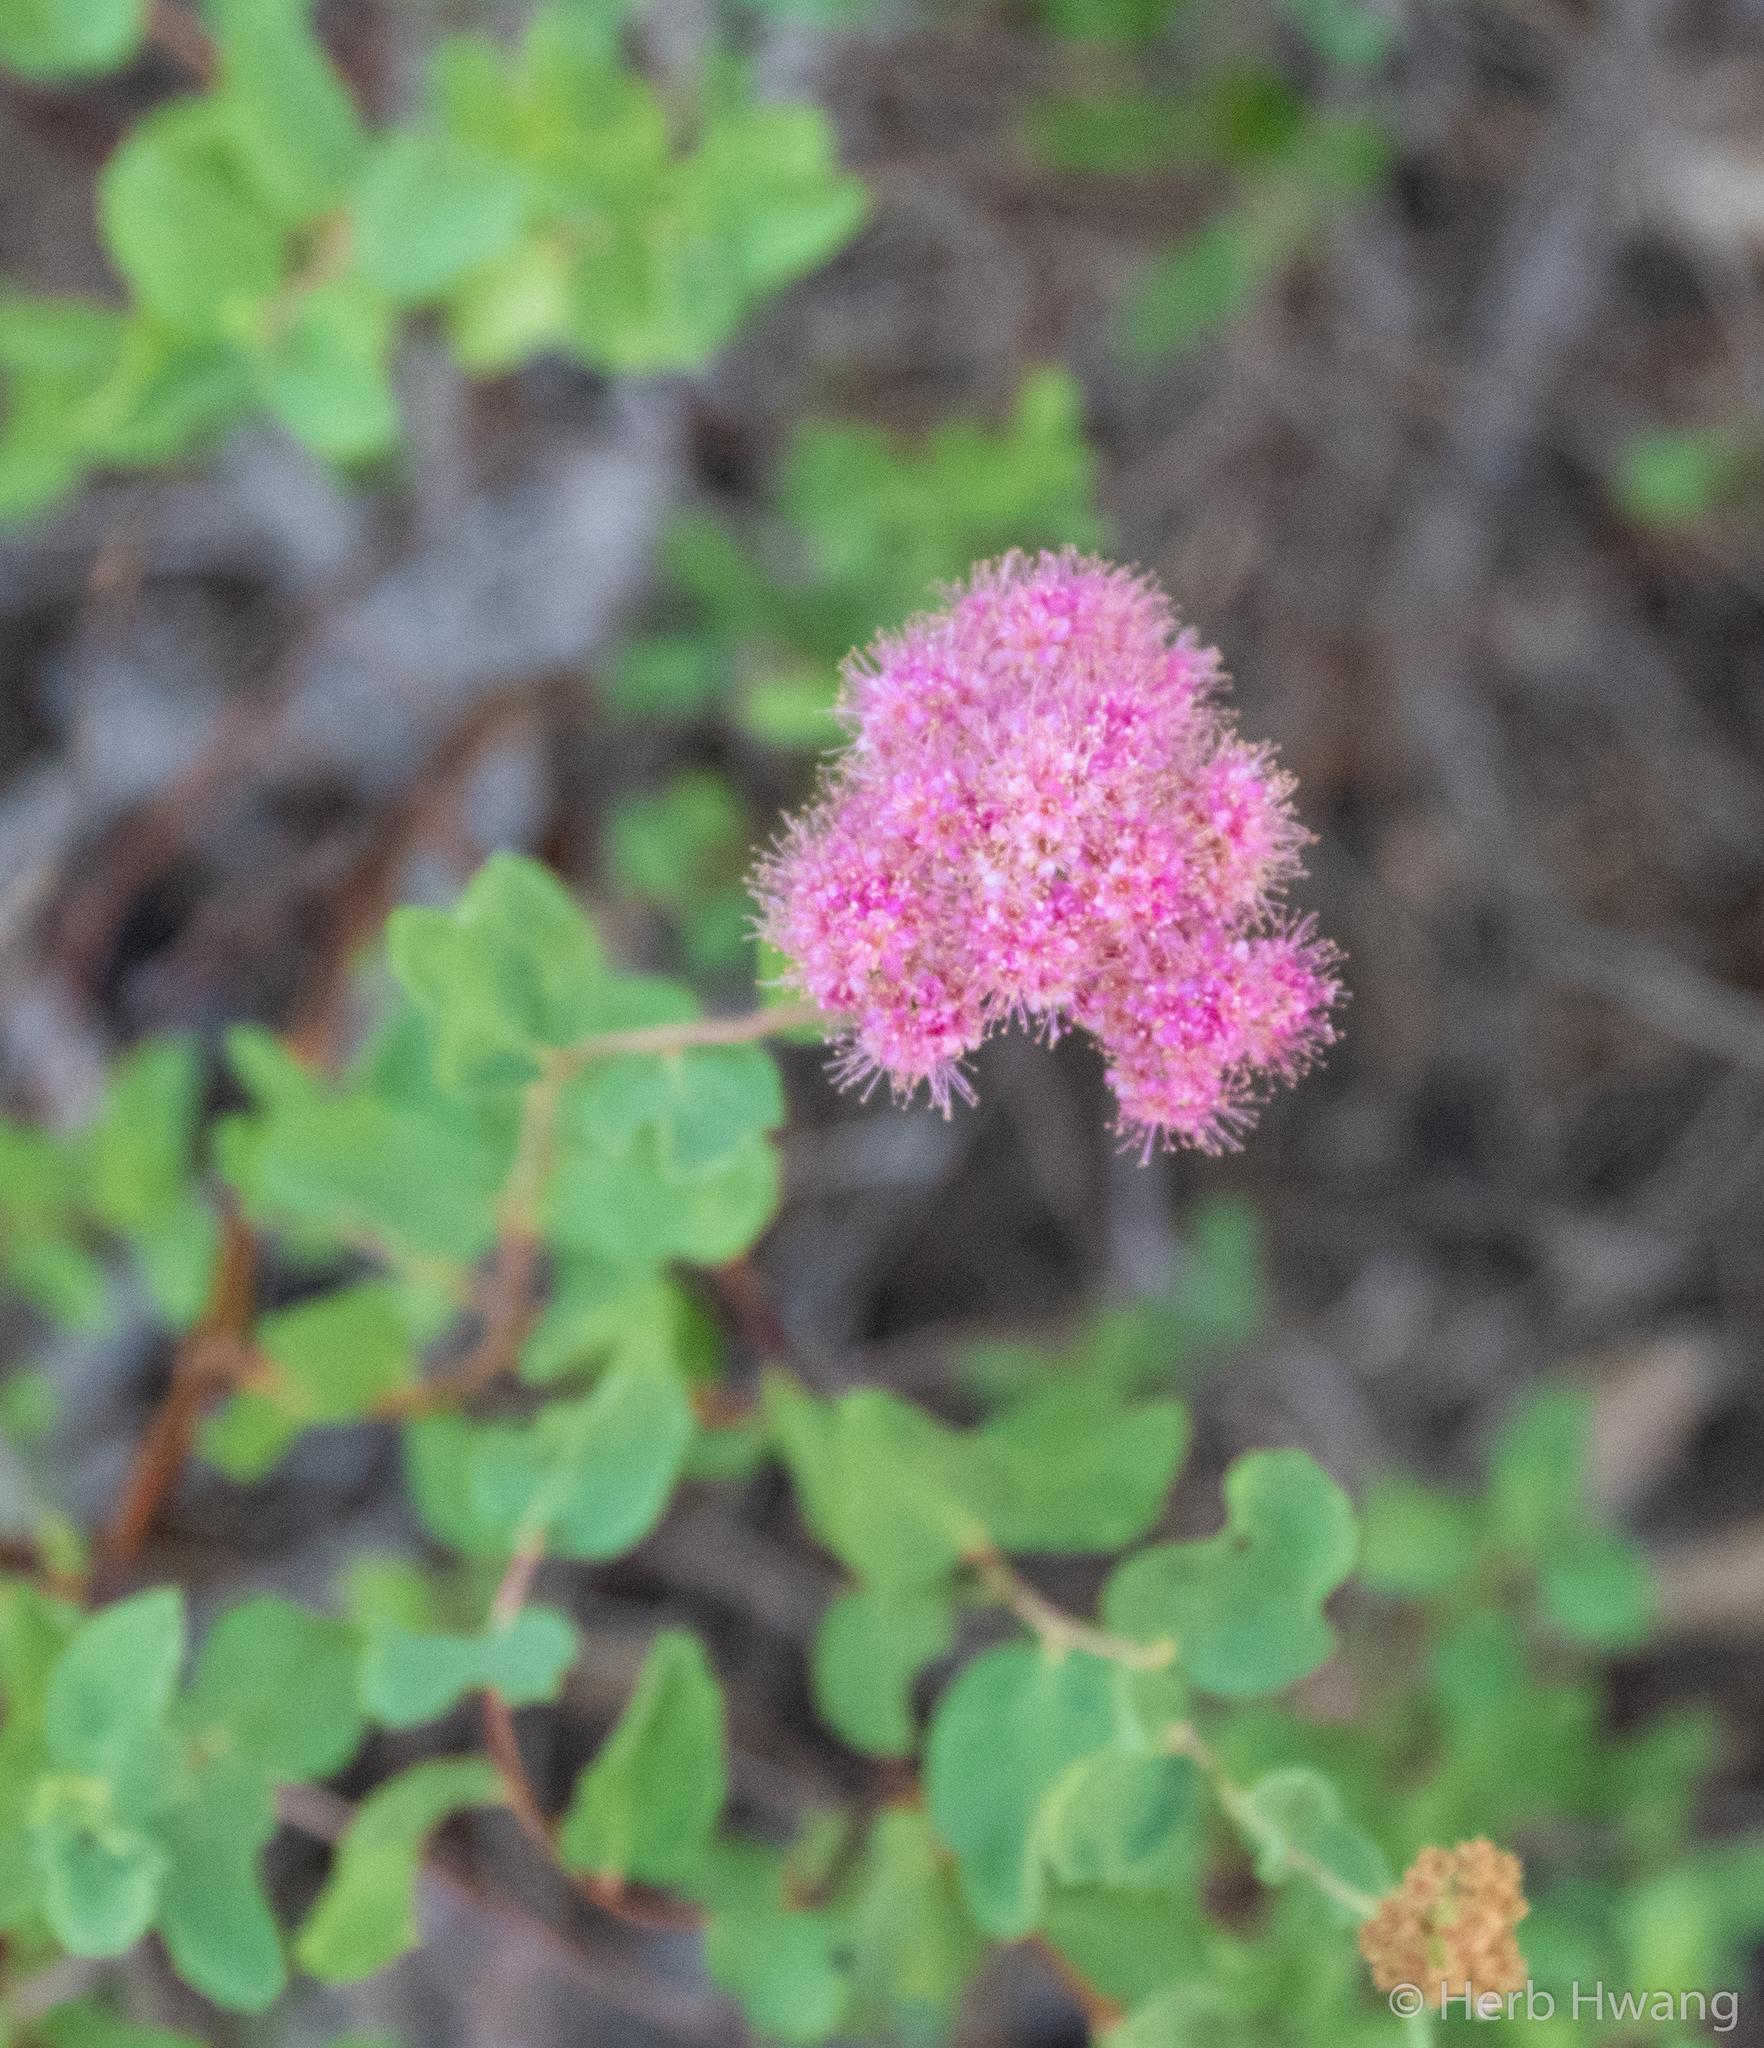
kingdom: Plantae
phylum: Tracheophyta
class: Magnoliopsida
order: Rosales
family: Rosaceae
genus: Spiraea
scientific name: Spiraea splendens
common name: Subalpine meadowsweet
